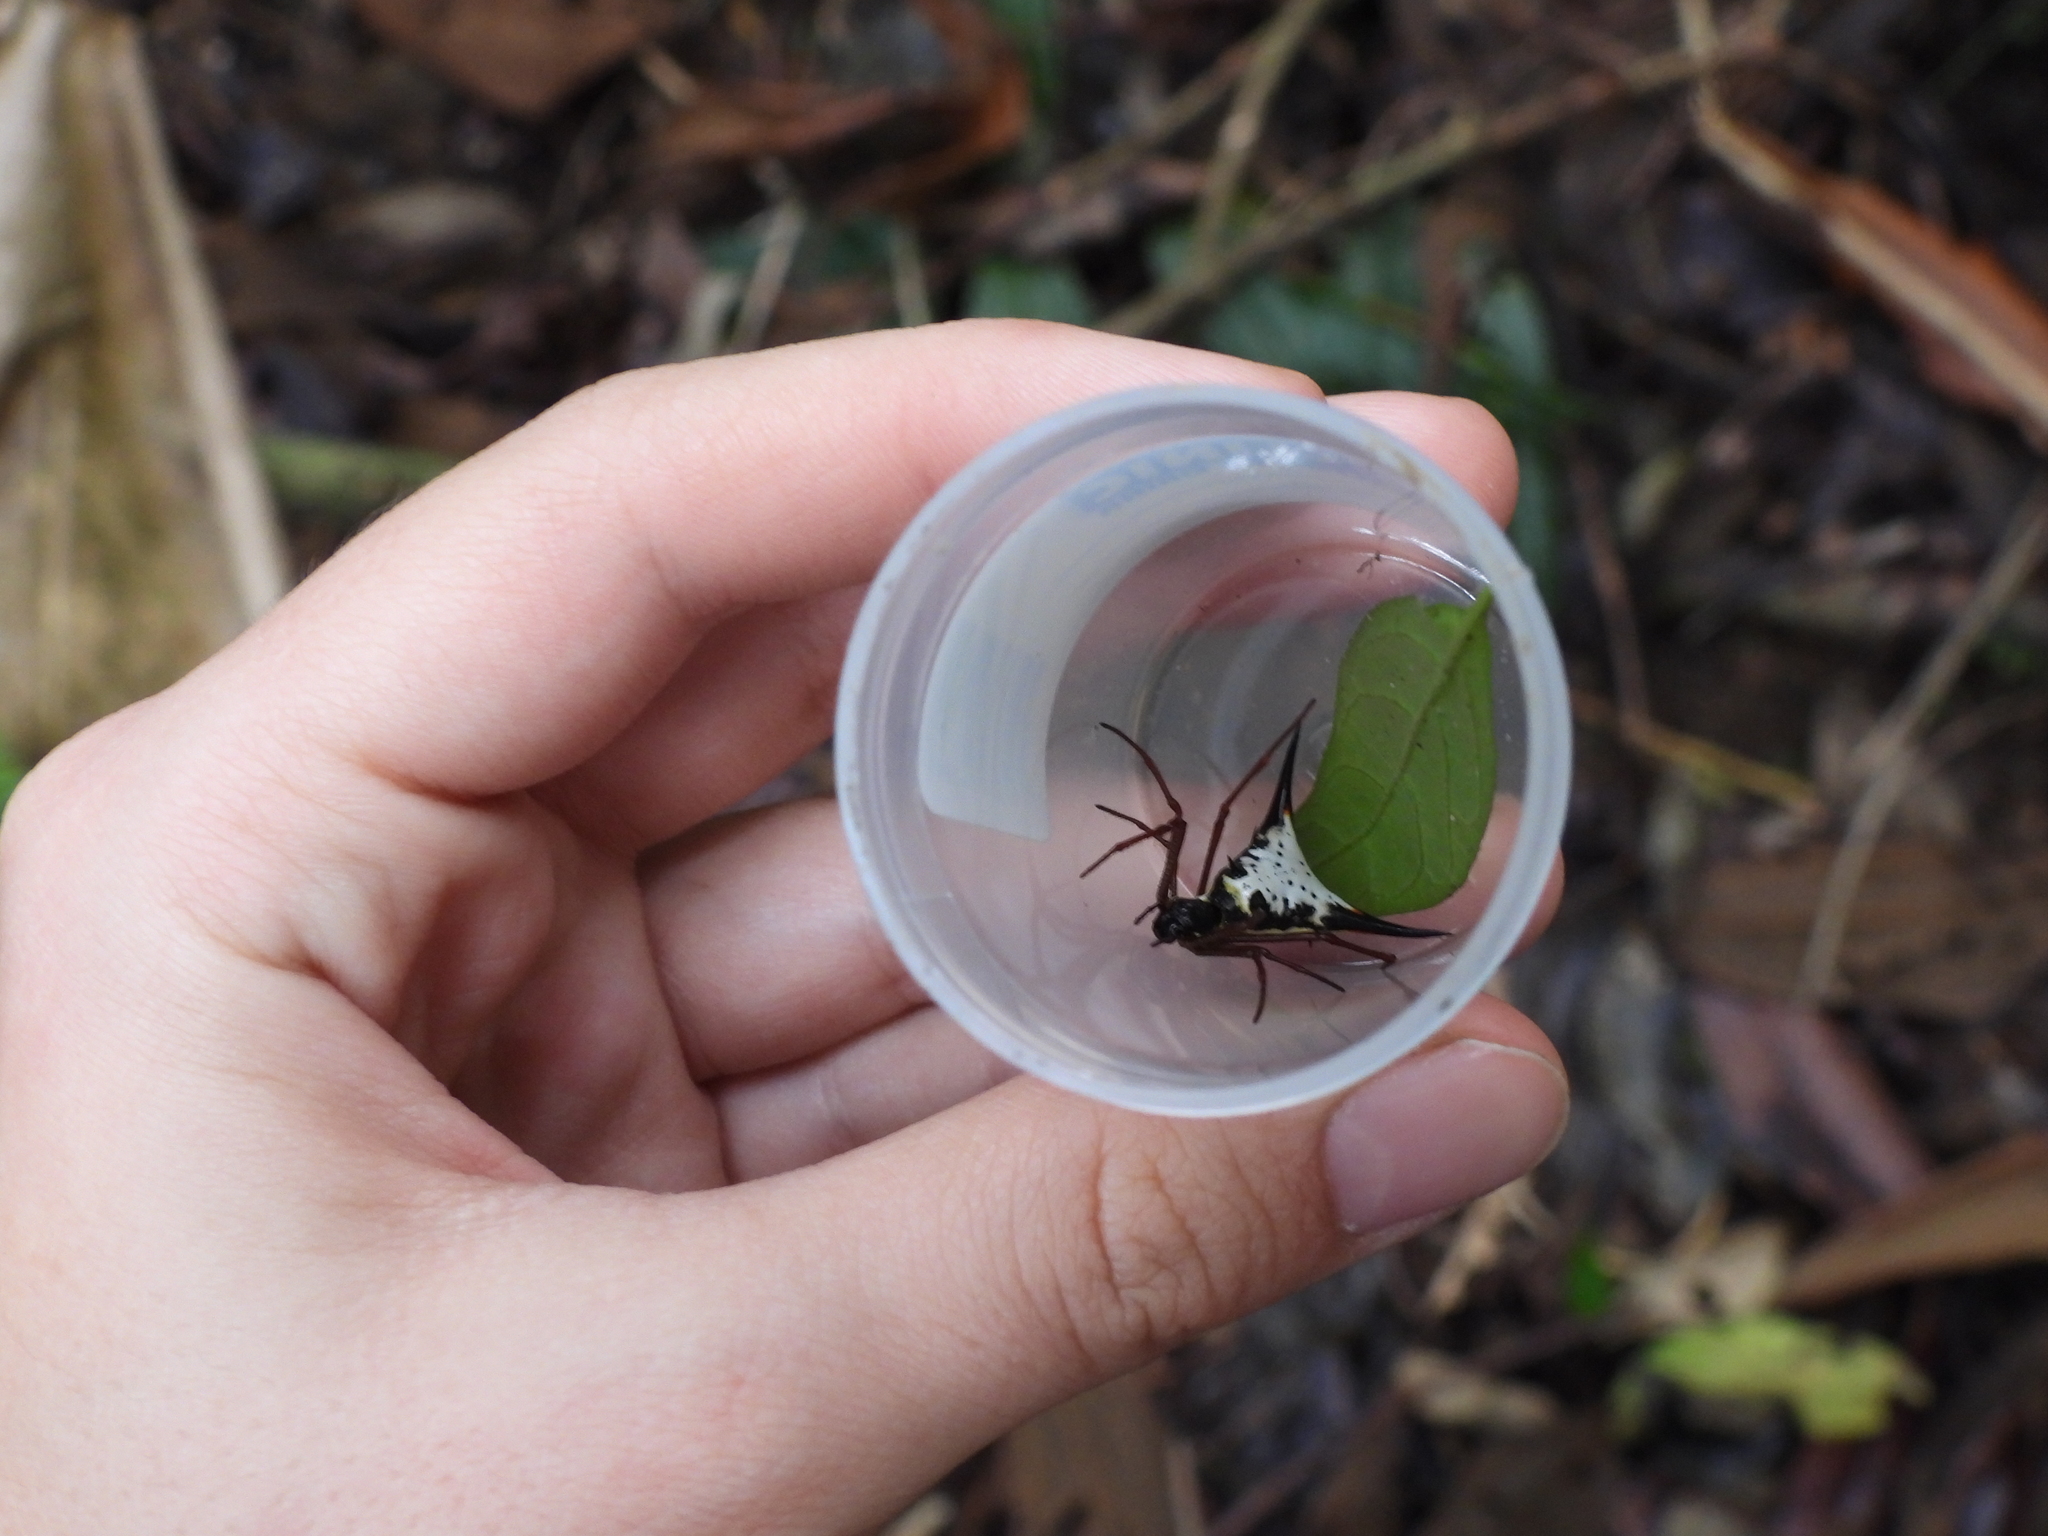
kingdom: Animalia
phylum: Arthropoda
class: Arachnida
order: Araneae
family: Araneidae
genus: Micrathena
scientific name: Micrathena schreibersi
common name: Orb weavers
